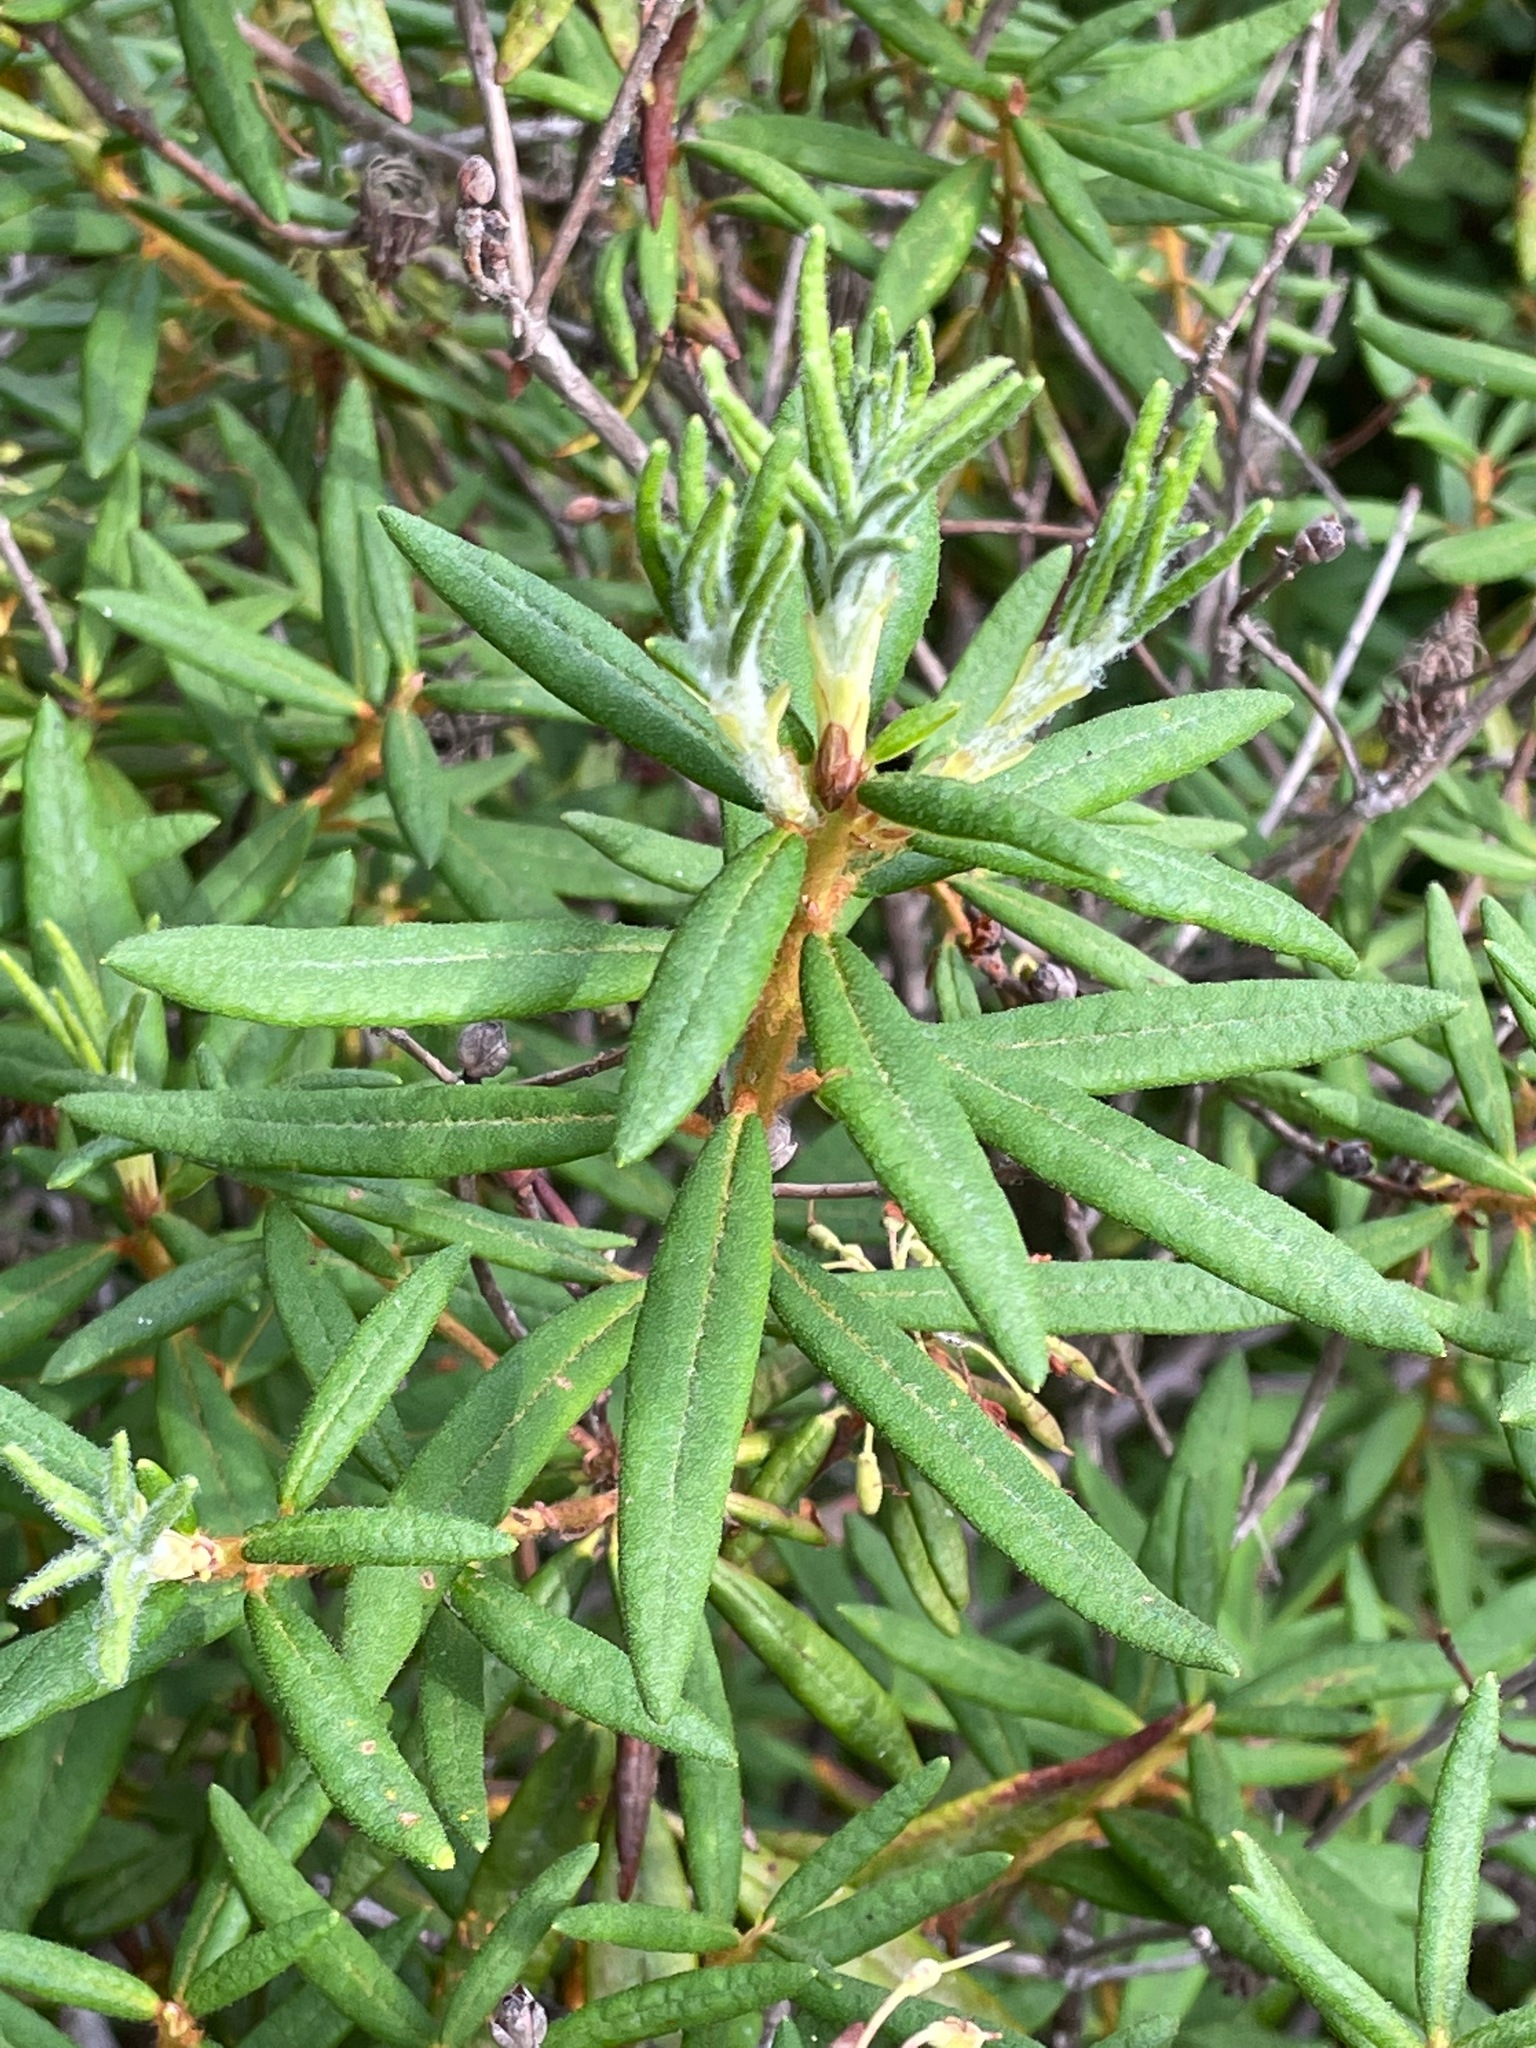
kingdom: Plantae
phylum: Tracheophyta
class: Magnoliopsida
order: Ericales
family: Ericaceae
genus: Rhododendron
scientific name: Rhododendron groenlandicum
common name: Bog labrador tea
